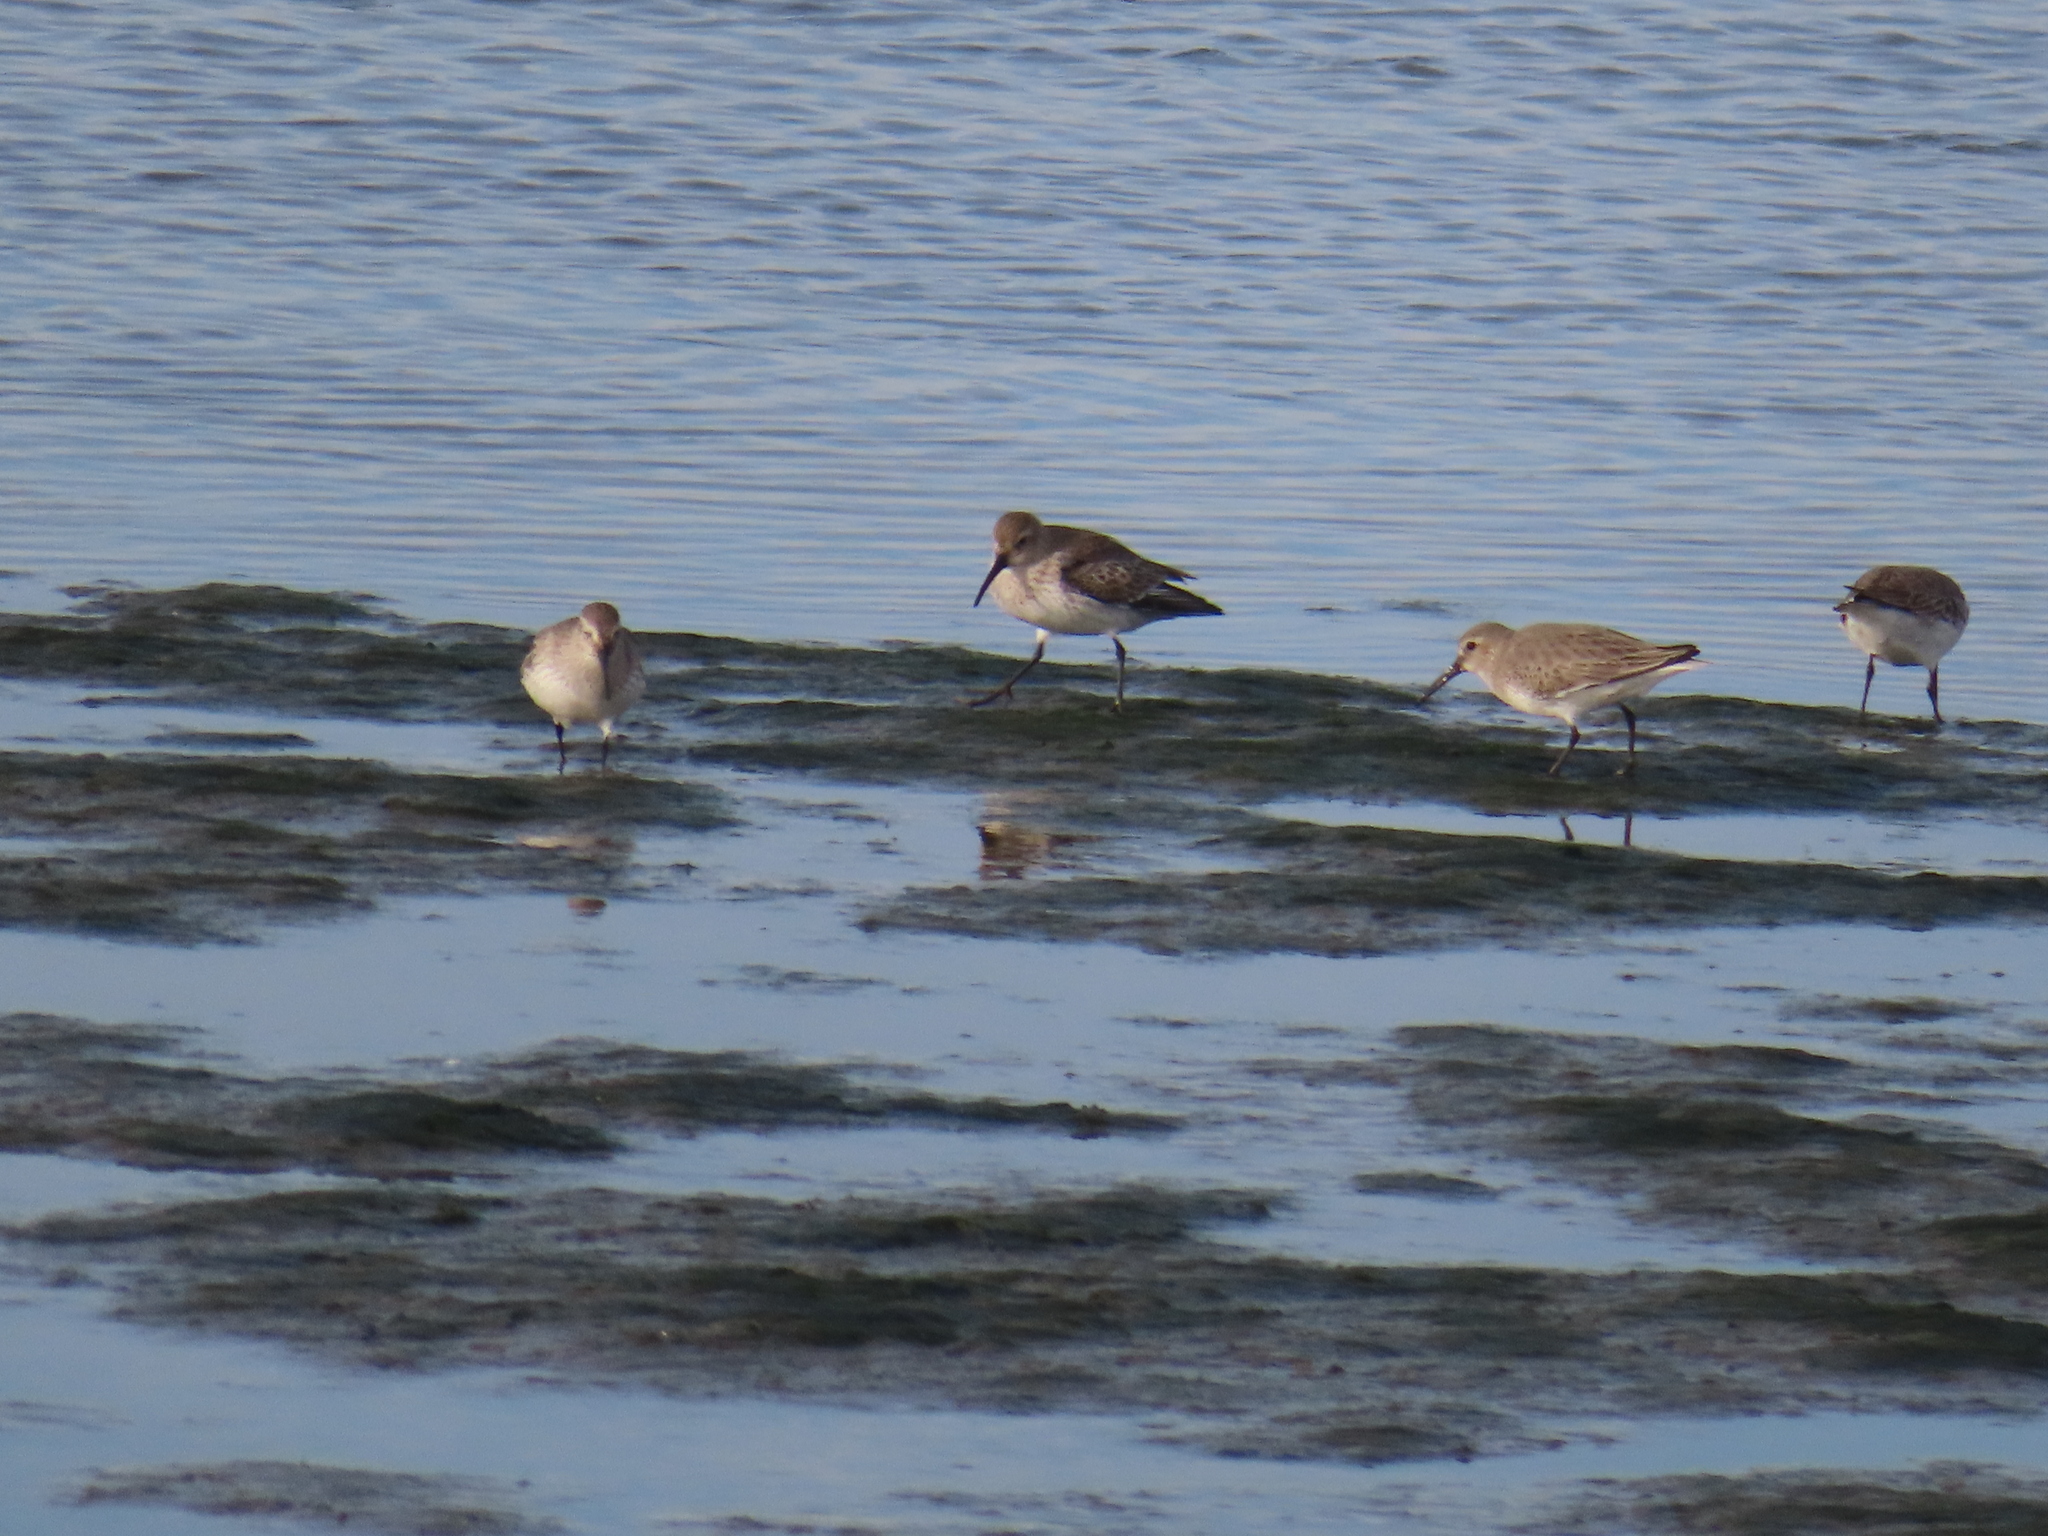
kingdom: Animalia
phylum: Chordata
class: Aves
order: Charadriiformes
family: Scolopacidae
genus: Calidris
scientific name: Calidris alpina
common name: Dunlin
